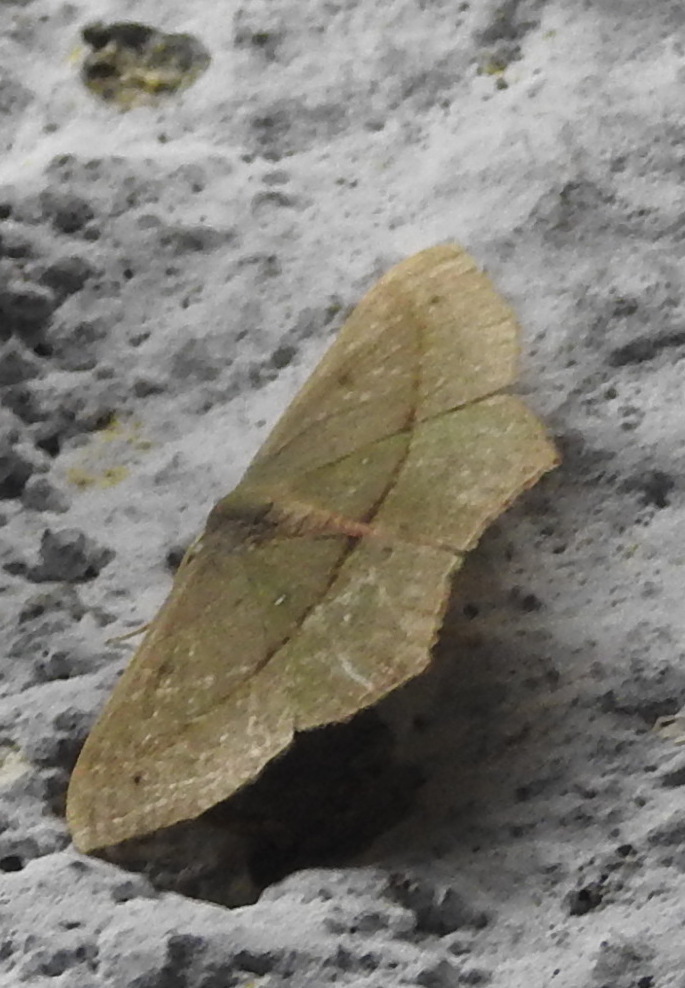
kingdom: Animalia
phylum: Arthropoda
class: Insecta
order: Lepidoptera
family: Geometridae
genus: Traminda
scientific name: Traminda mundissima
